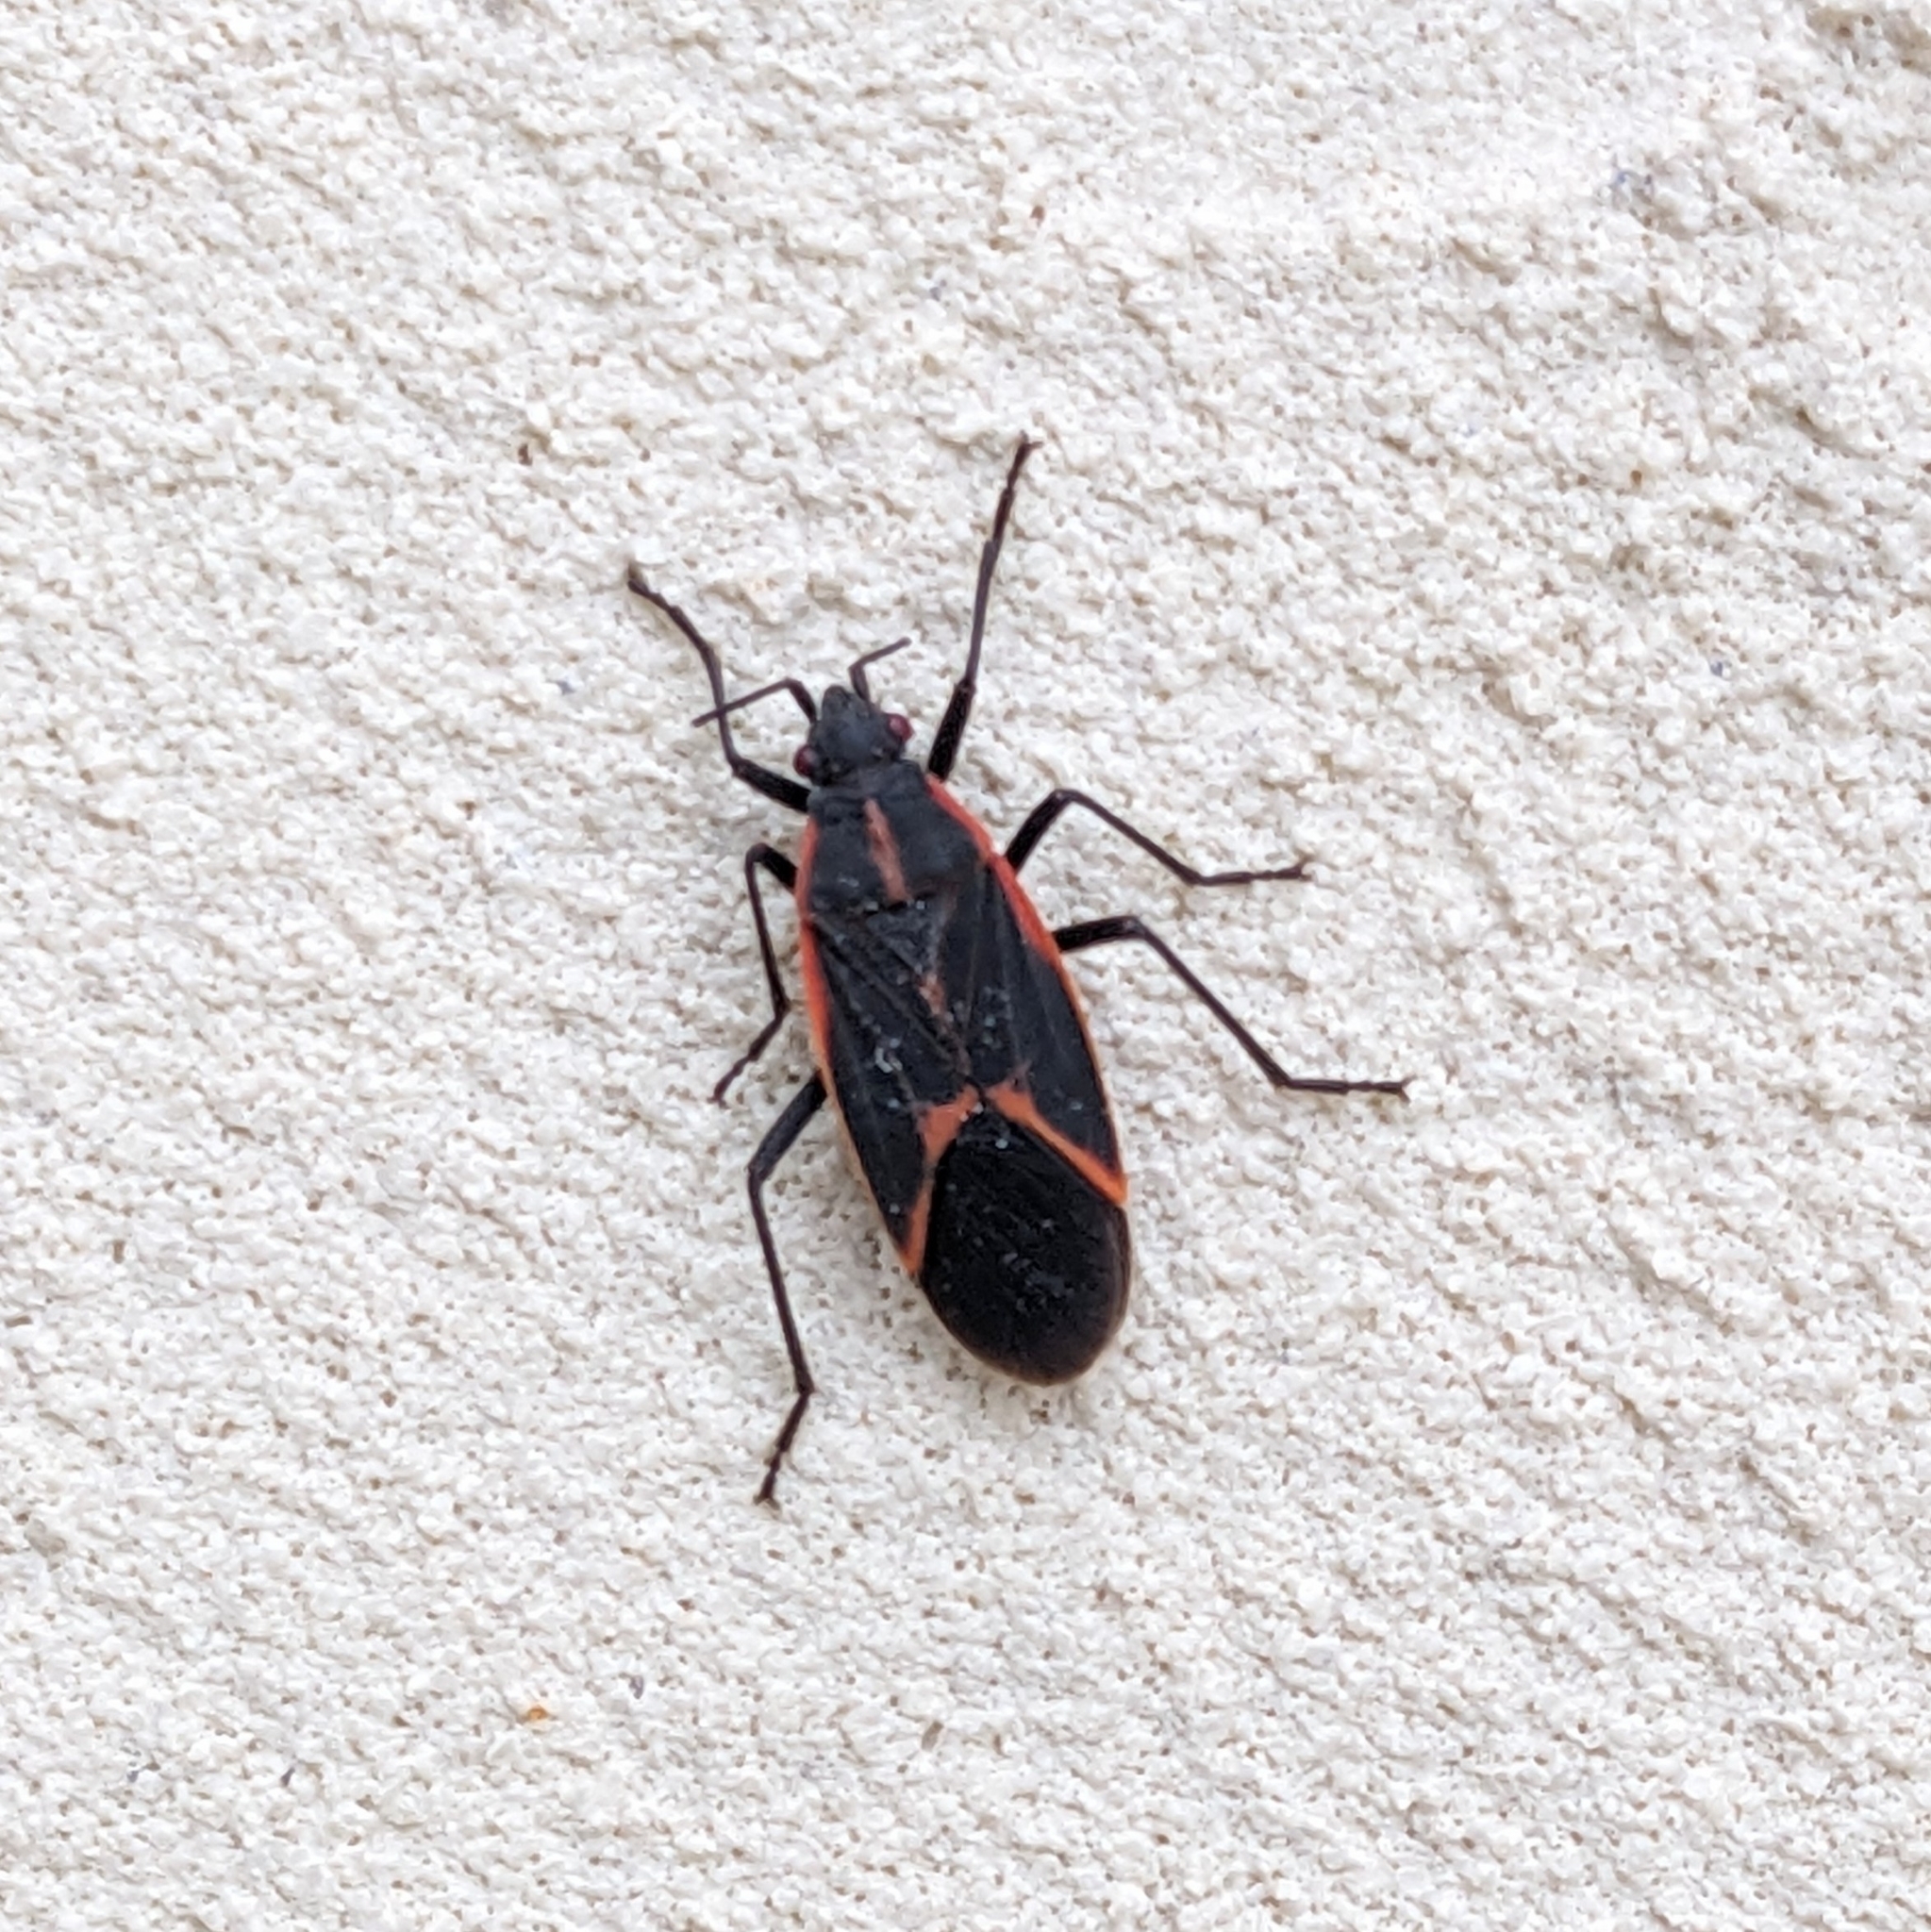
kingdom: Animalia
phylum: Arthropoda
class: Insecta
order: Hemiptera
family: Rhopalidae
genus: Boisea
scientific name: Boisea trivittata
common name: Boxelder bug
